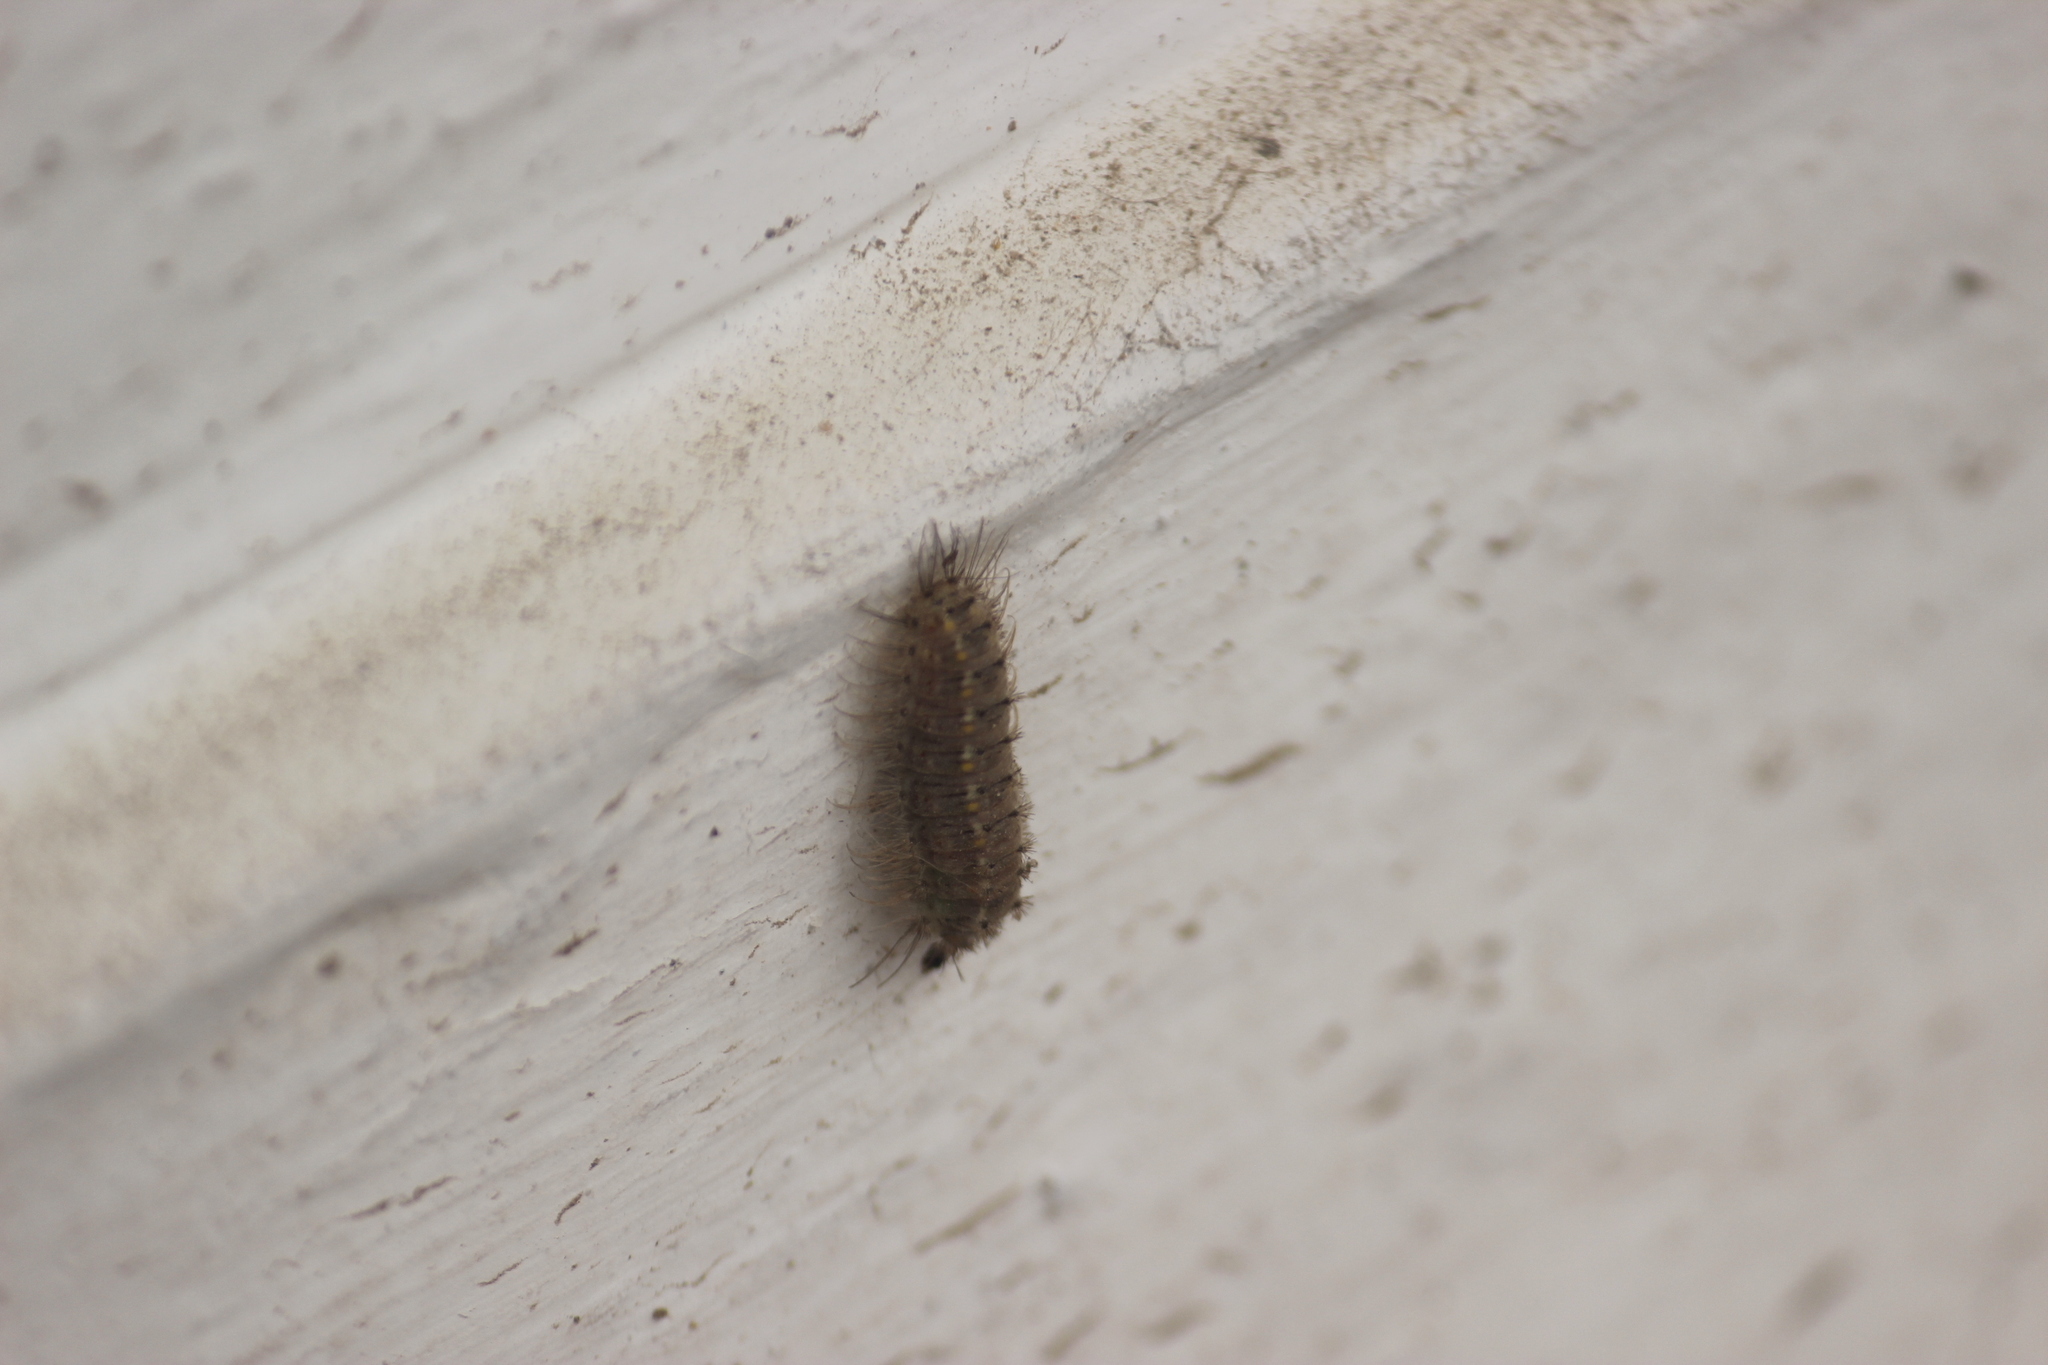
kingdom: Animalia
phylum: Arthropoda
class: Insecta
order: Lepidoptera
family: Lycaenidae
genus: Melanis
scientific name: Melanis
